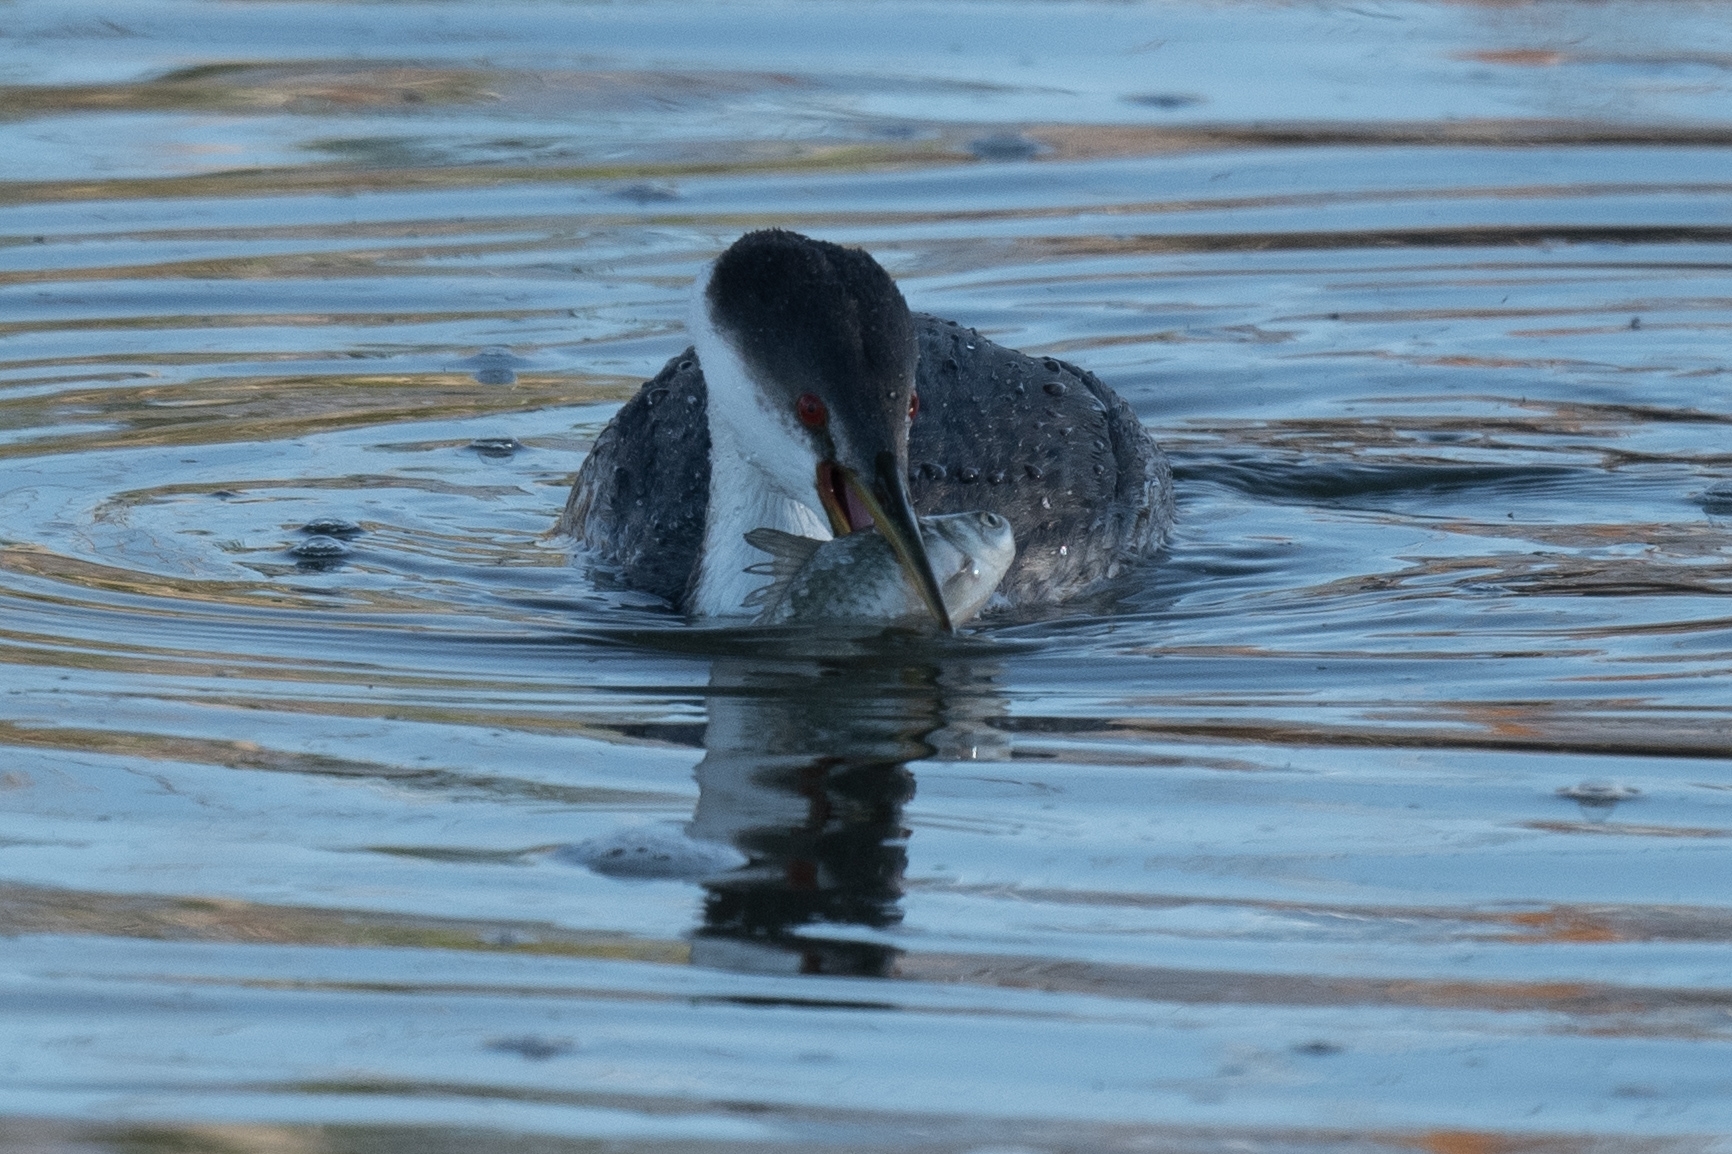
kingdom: Animalia
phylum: Chordata
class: Aves
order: Podicipediformes
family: Podicipedidae
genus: Aechmophorus
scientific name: Aechmophorus occidentalis
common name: Western grebe
